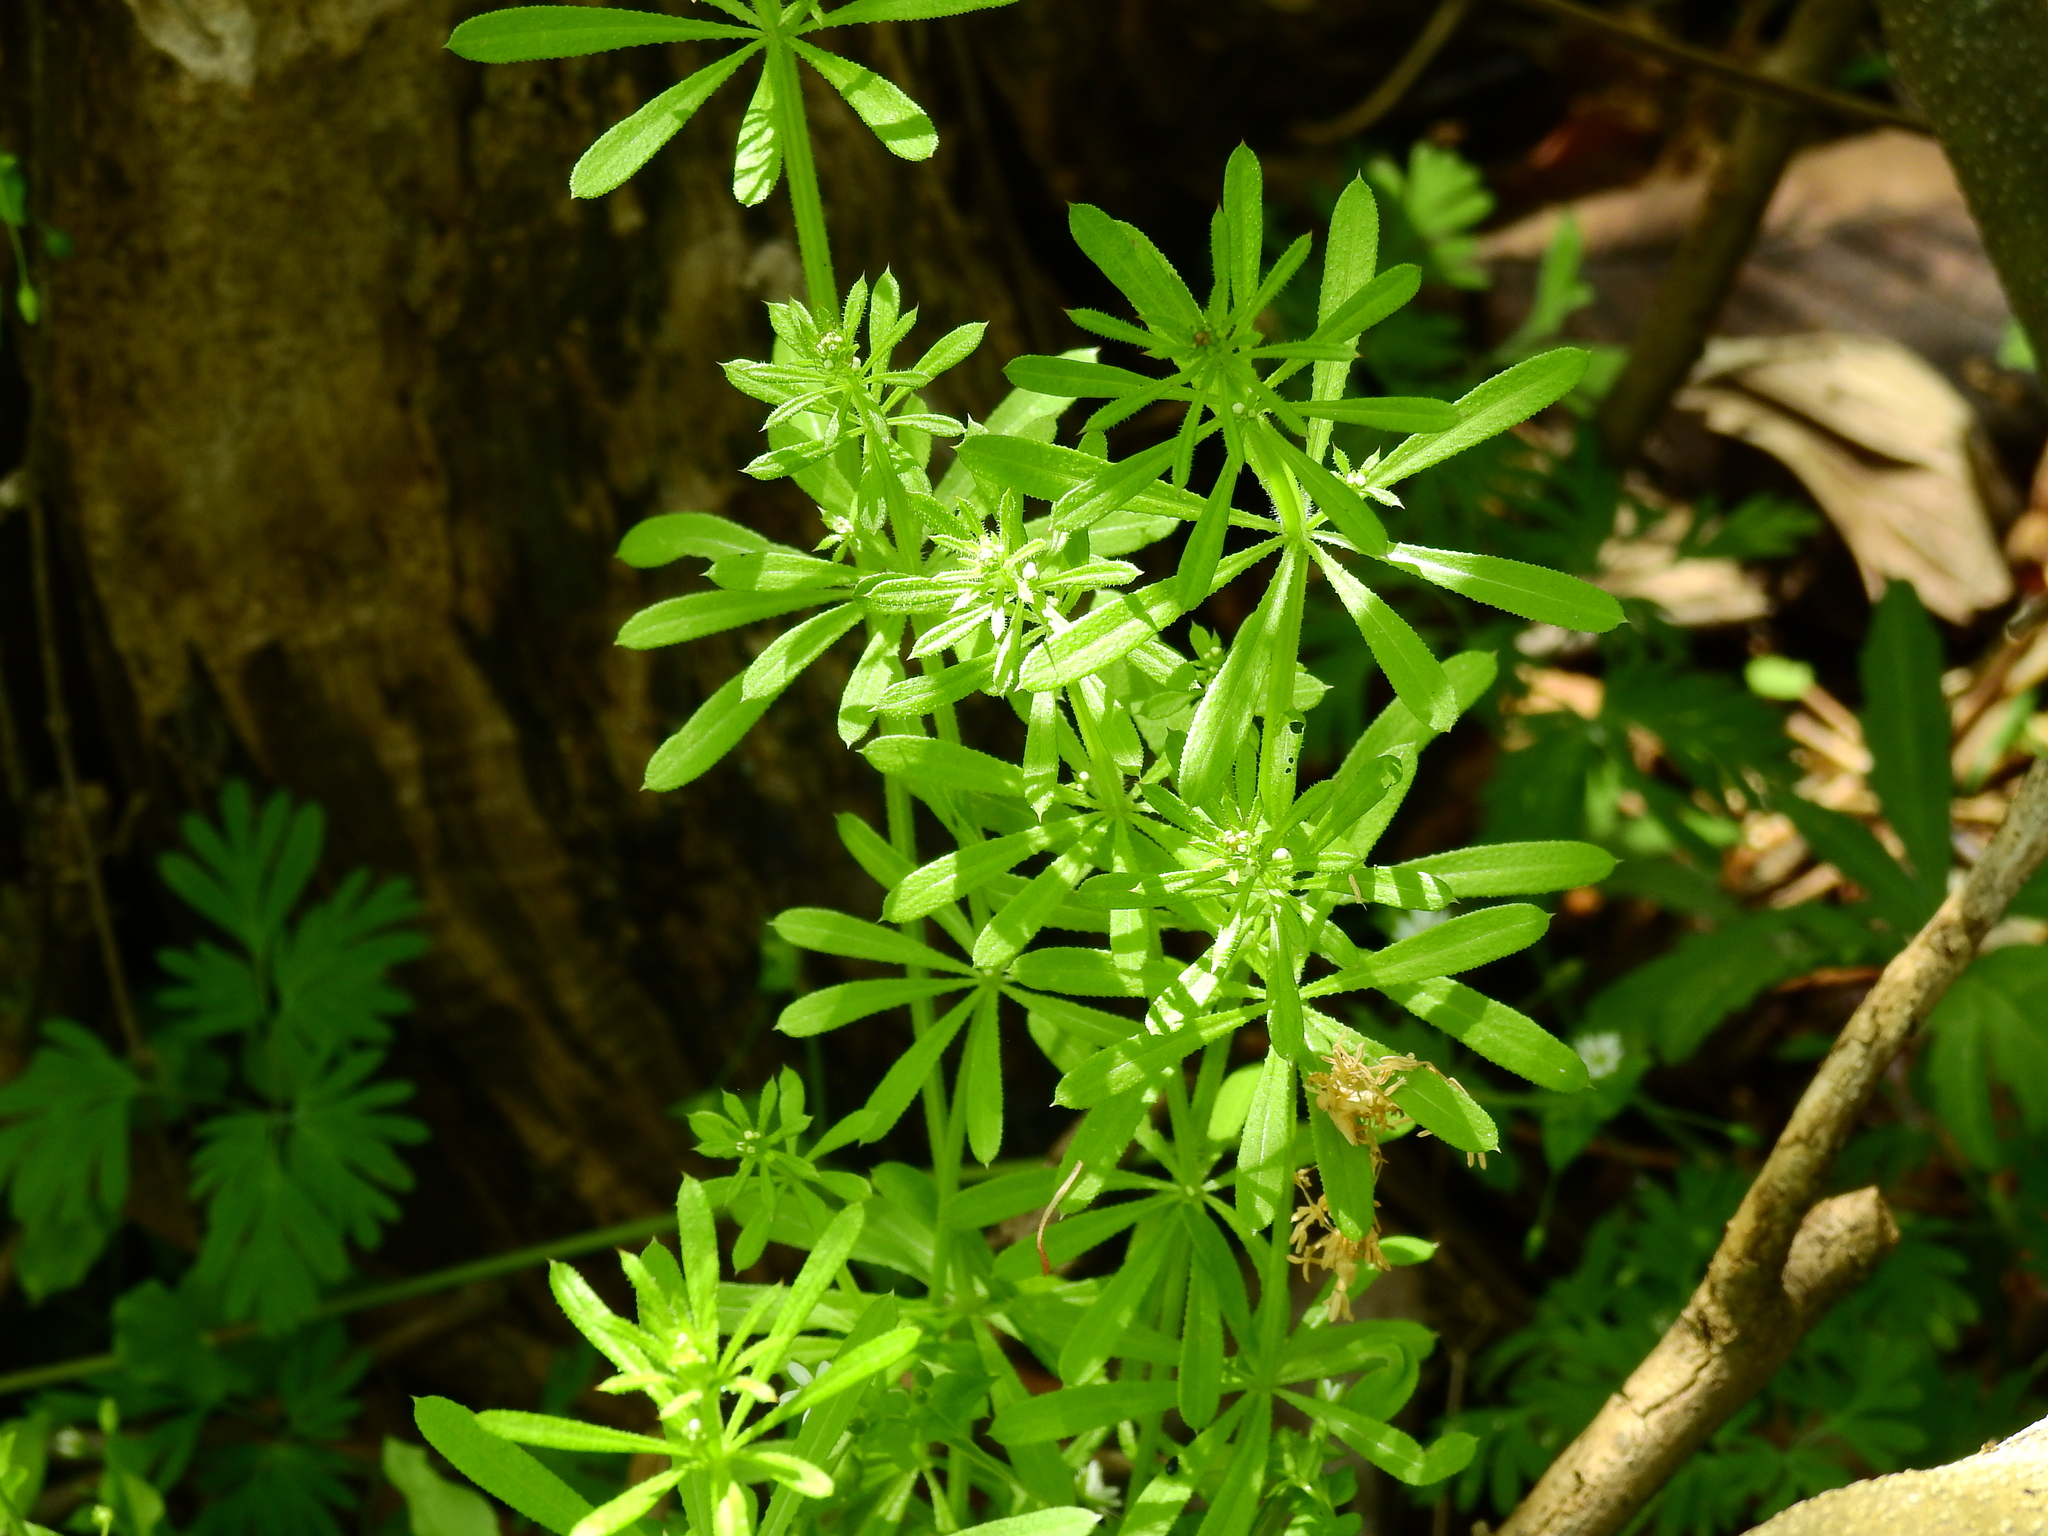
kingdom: Plantae
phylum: Tracheophyta
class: Magnoliopsida
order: Gentianales
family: Rubiaceae
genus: Galium
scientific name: Galium aparine
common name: Cleavers
